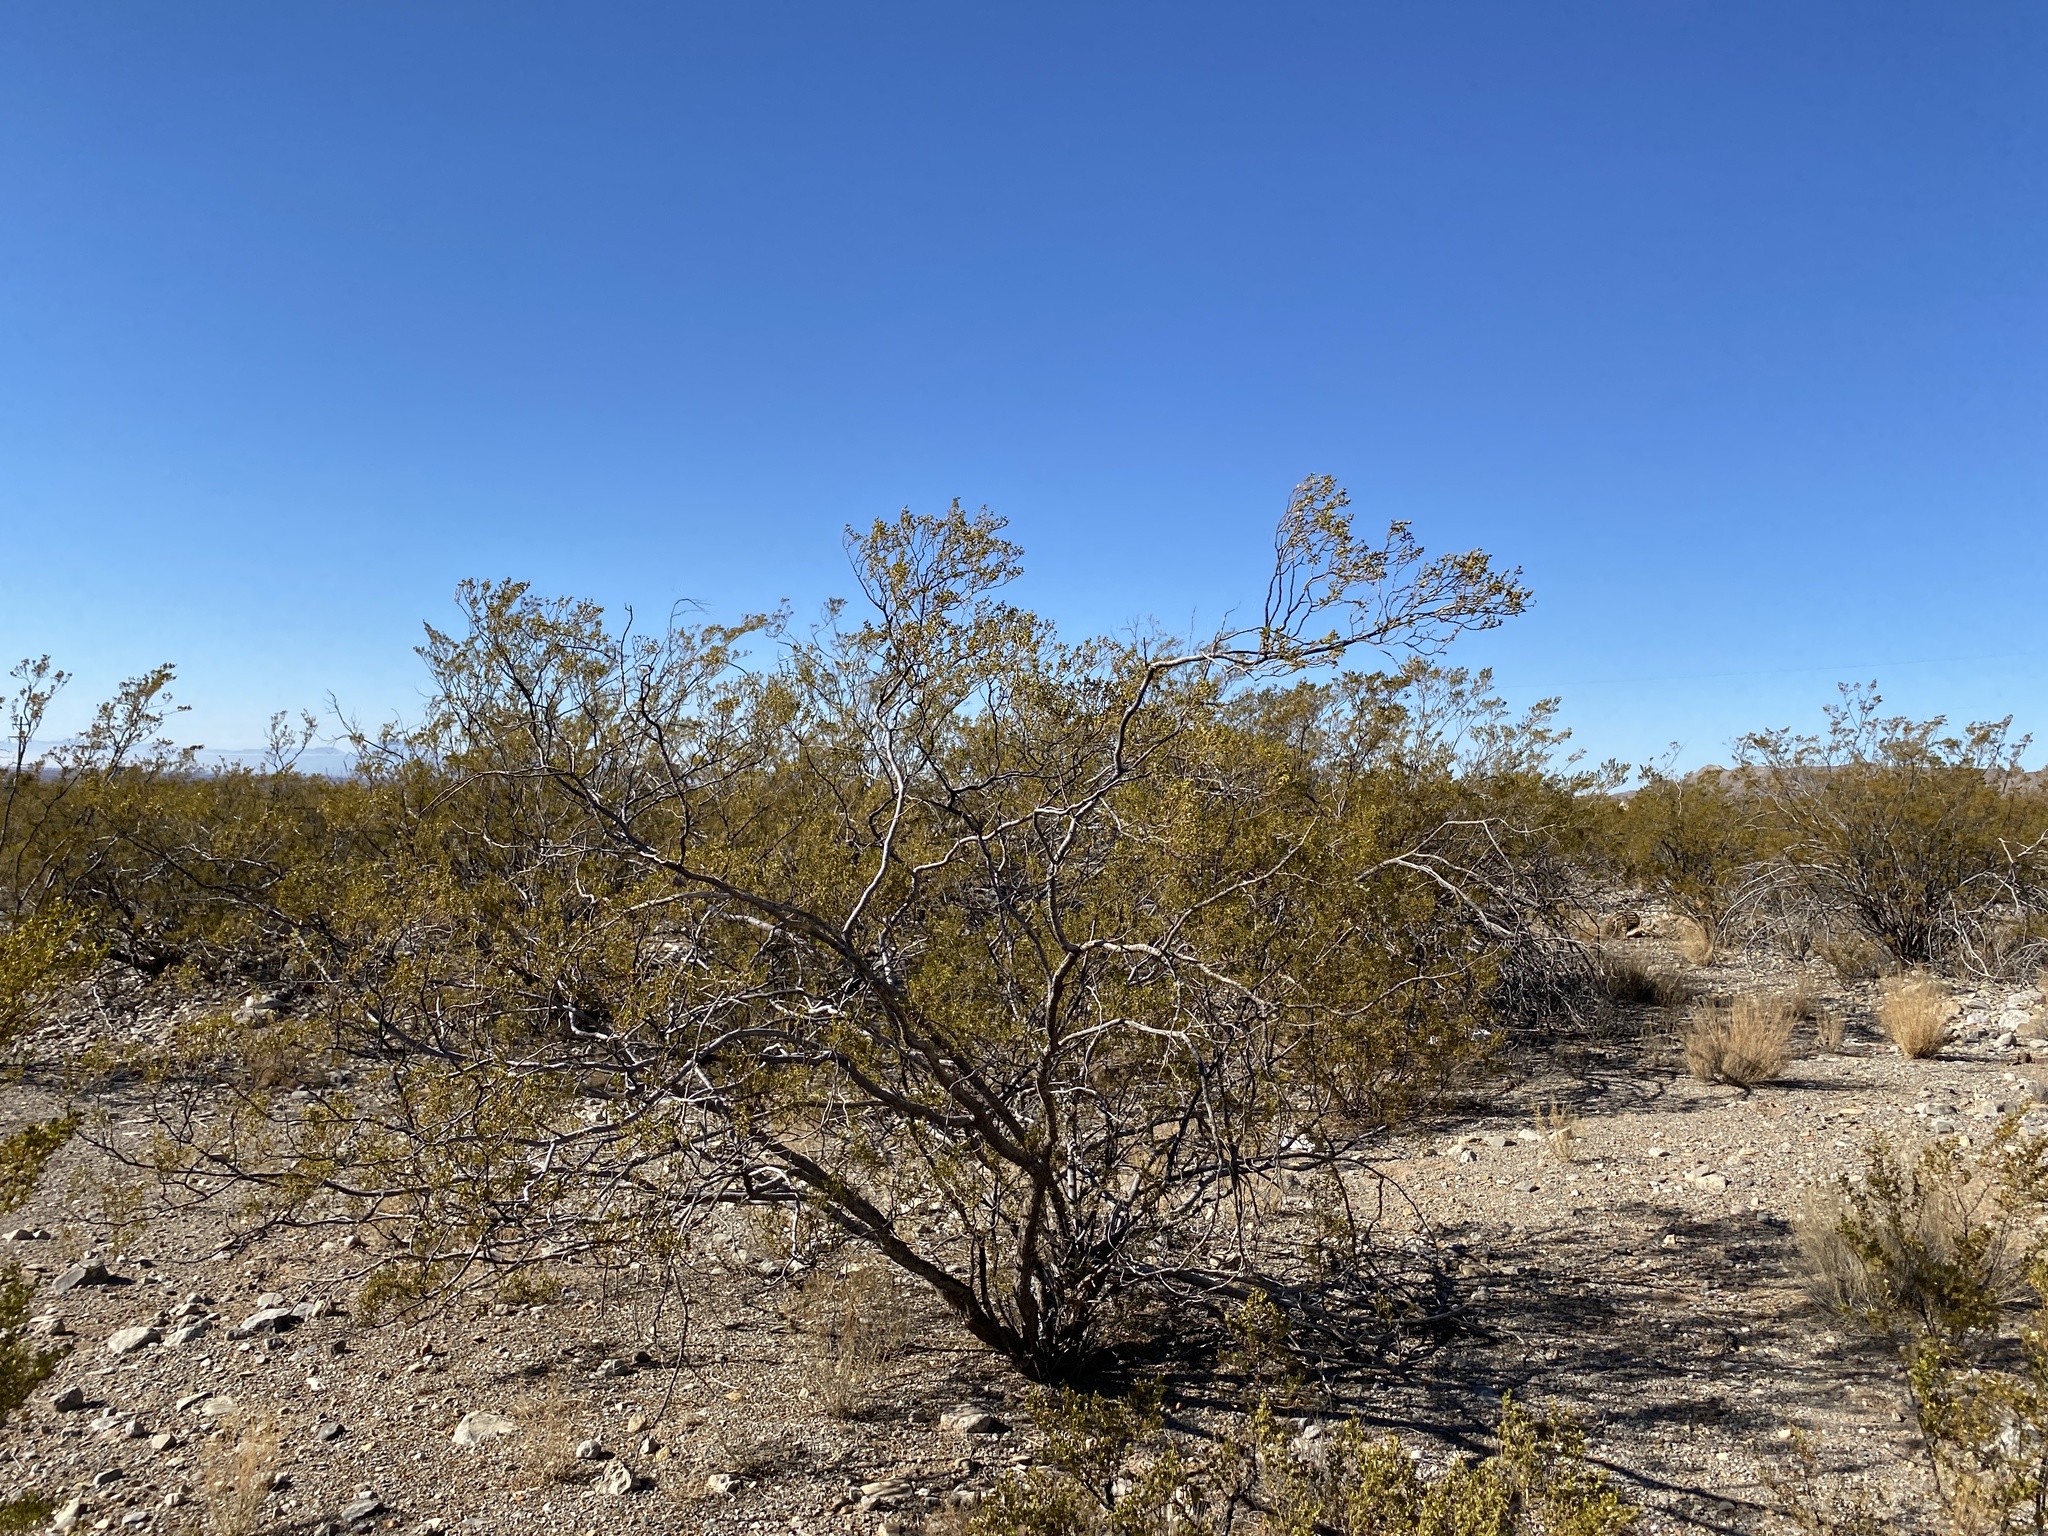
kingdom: Plantae
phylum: Tracheophyta
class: Magnoliopsida
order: Zygophyllales
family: Zygophyllaceae
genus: Larrea
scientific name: Larrea tridentata
